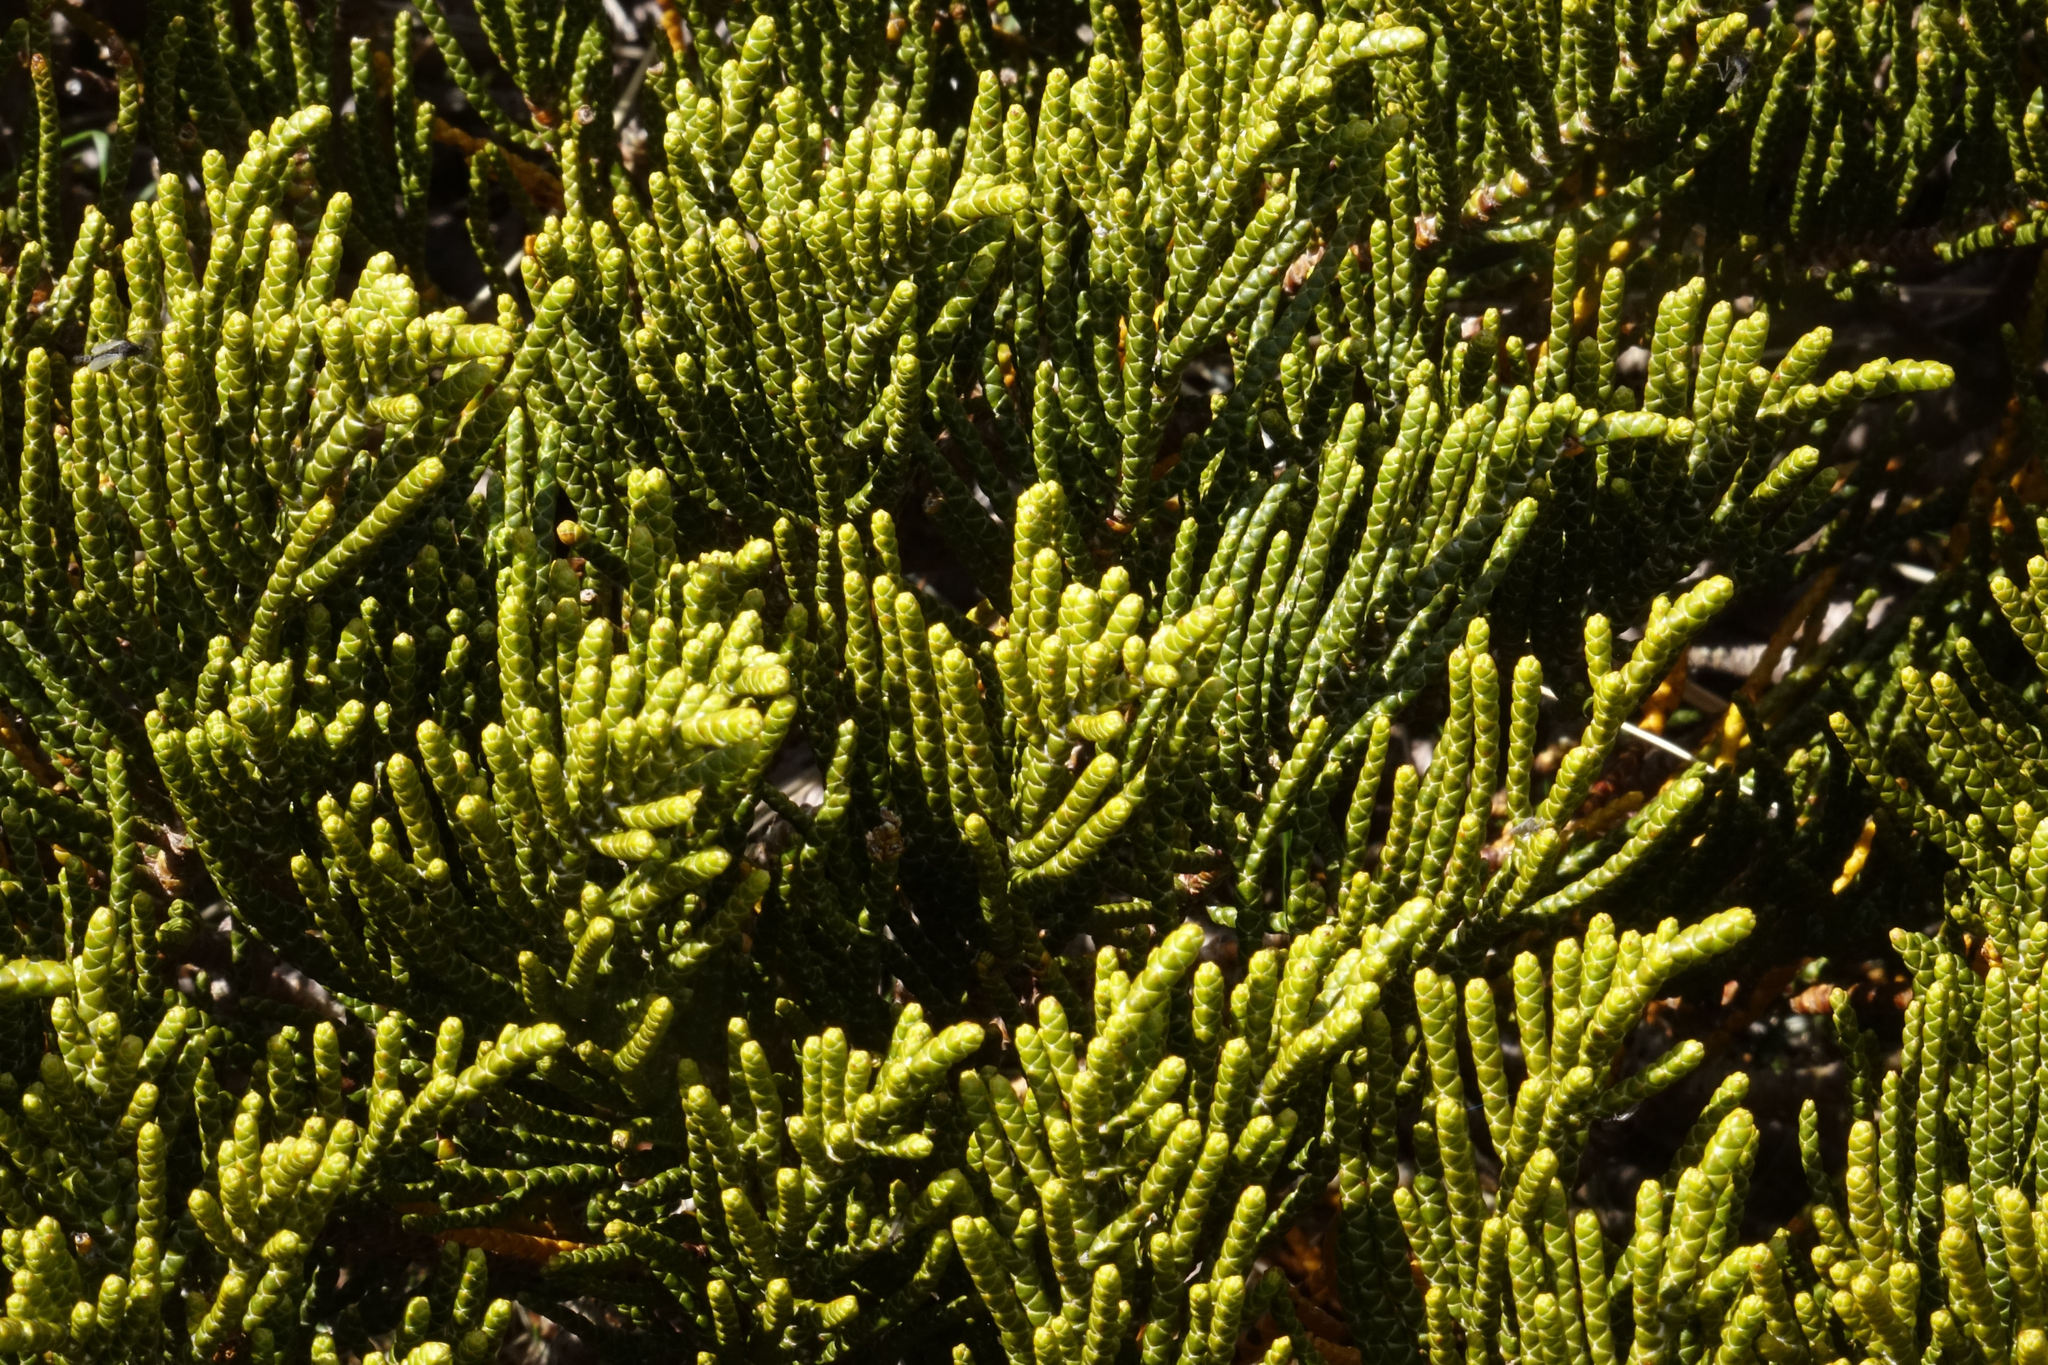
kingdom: Plantae
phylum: Tracheophyta
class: Magnoliopsida
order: Lamiales
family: Plantaginaceae
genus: Veronica
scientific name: Veronica hectorii
